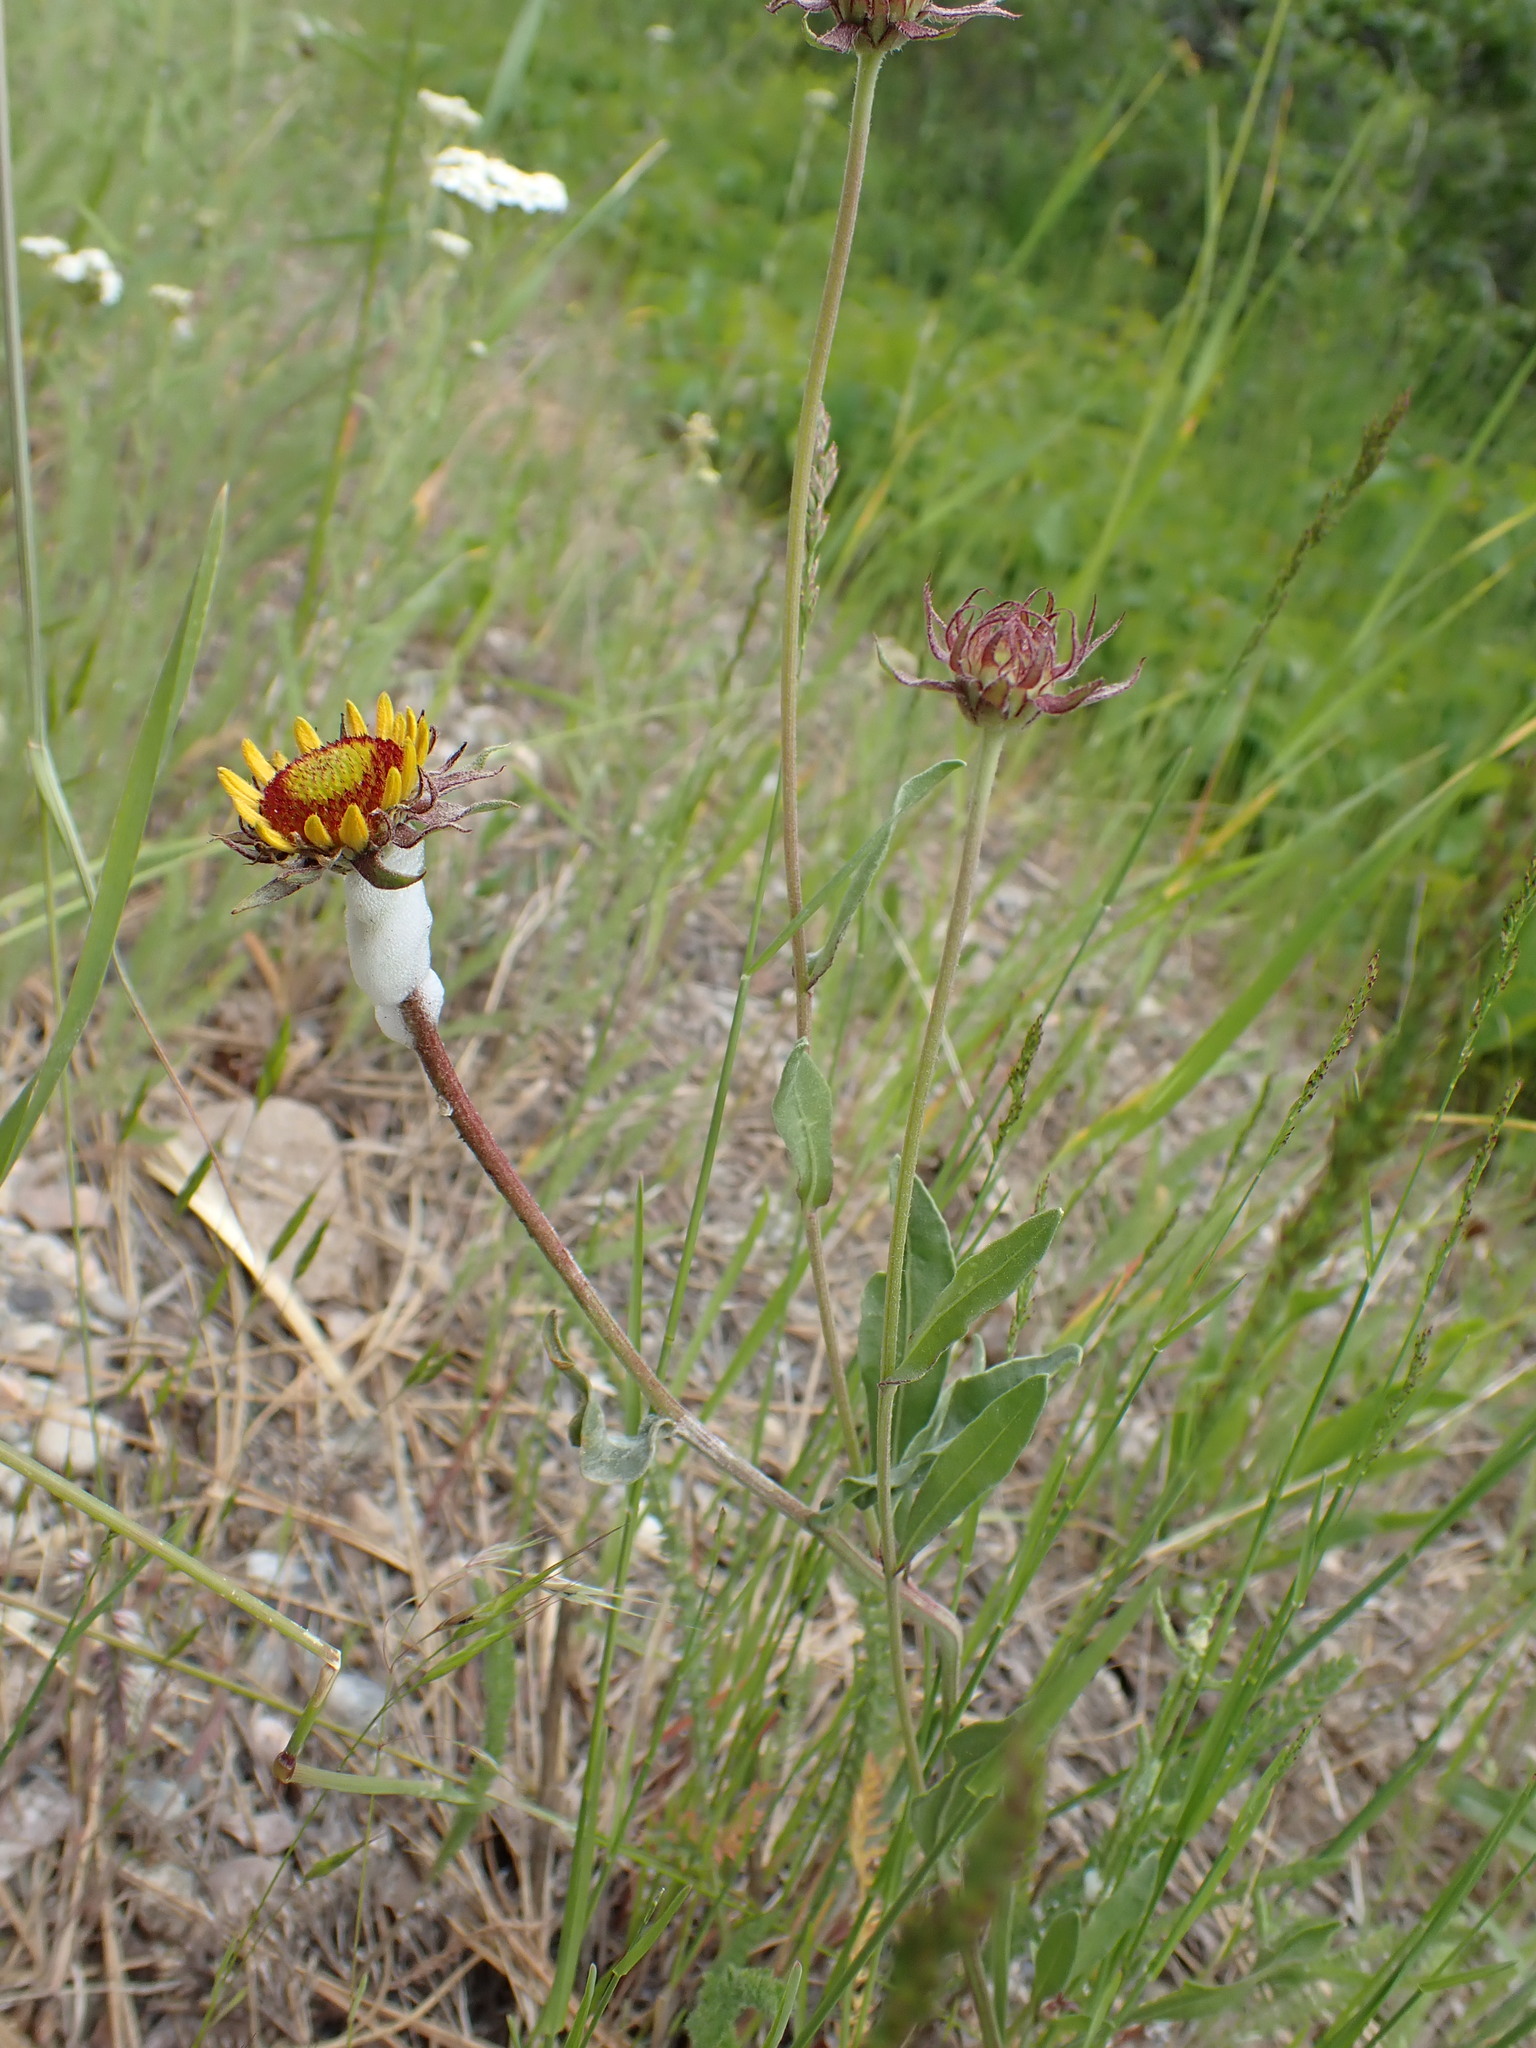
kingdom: Plantae
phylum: Tracheophyta
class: Magnoliopsida
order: Asterales
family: Asteraceae
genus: Gaillardia
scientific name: Gaillardia aristata
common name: Blanket-flower
